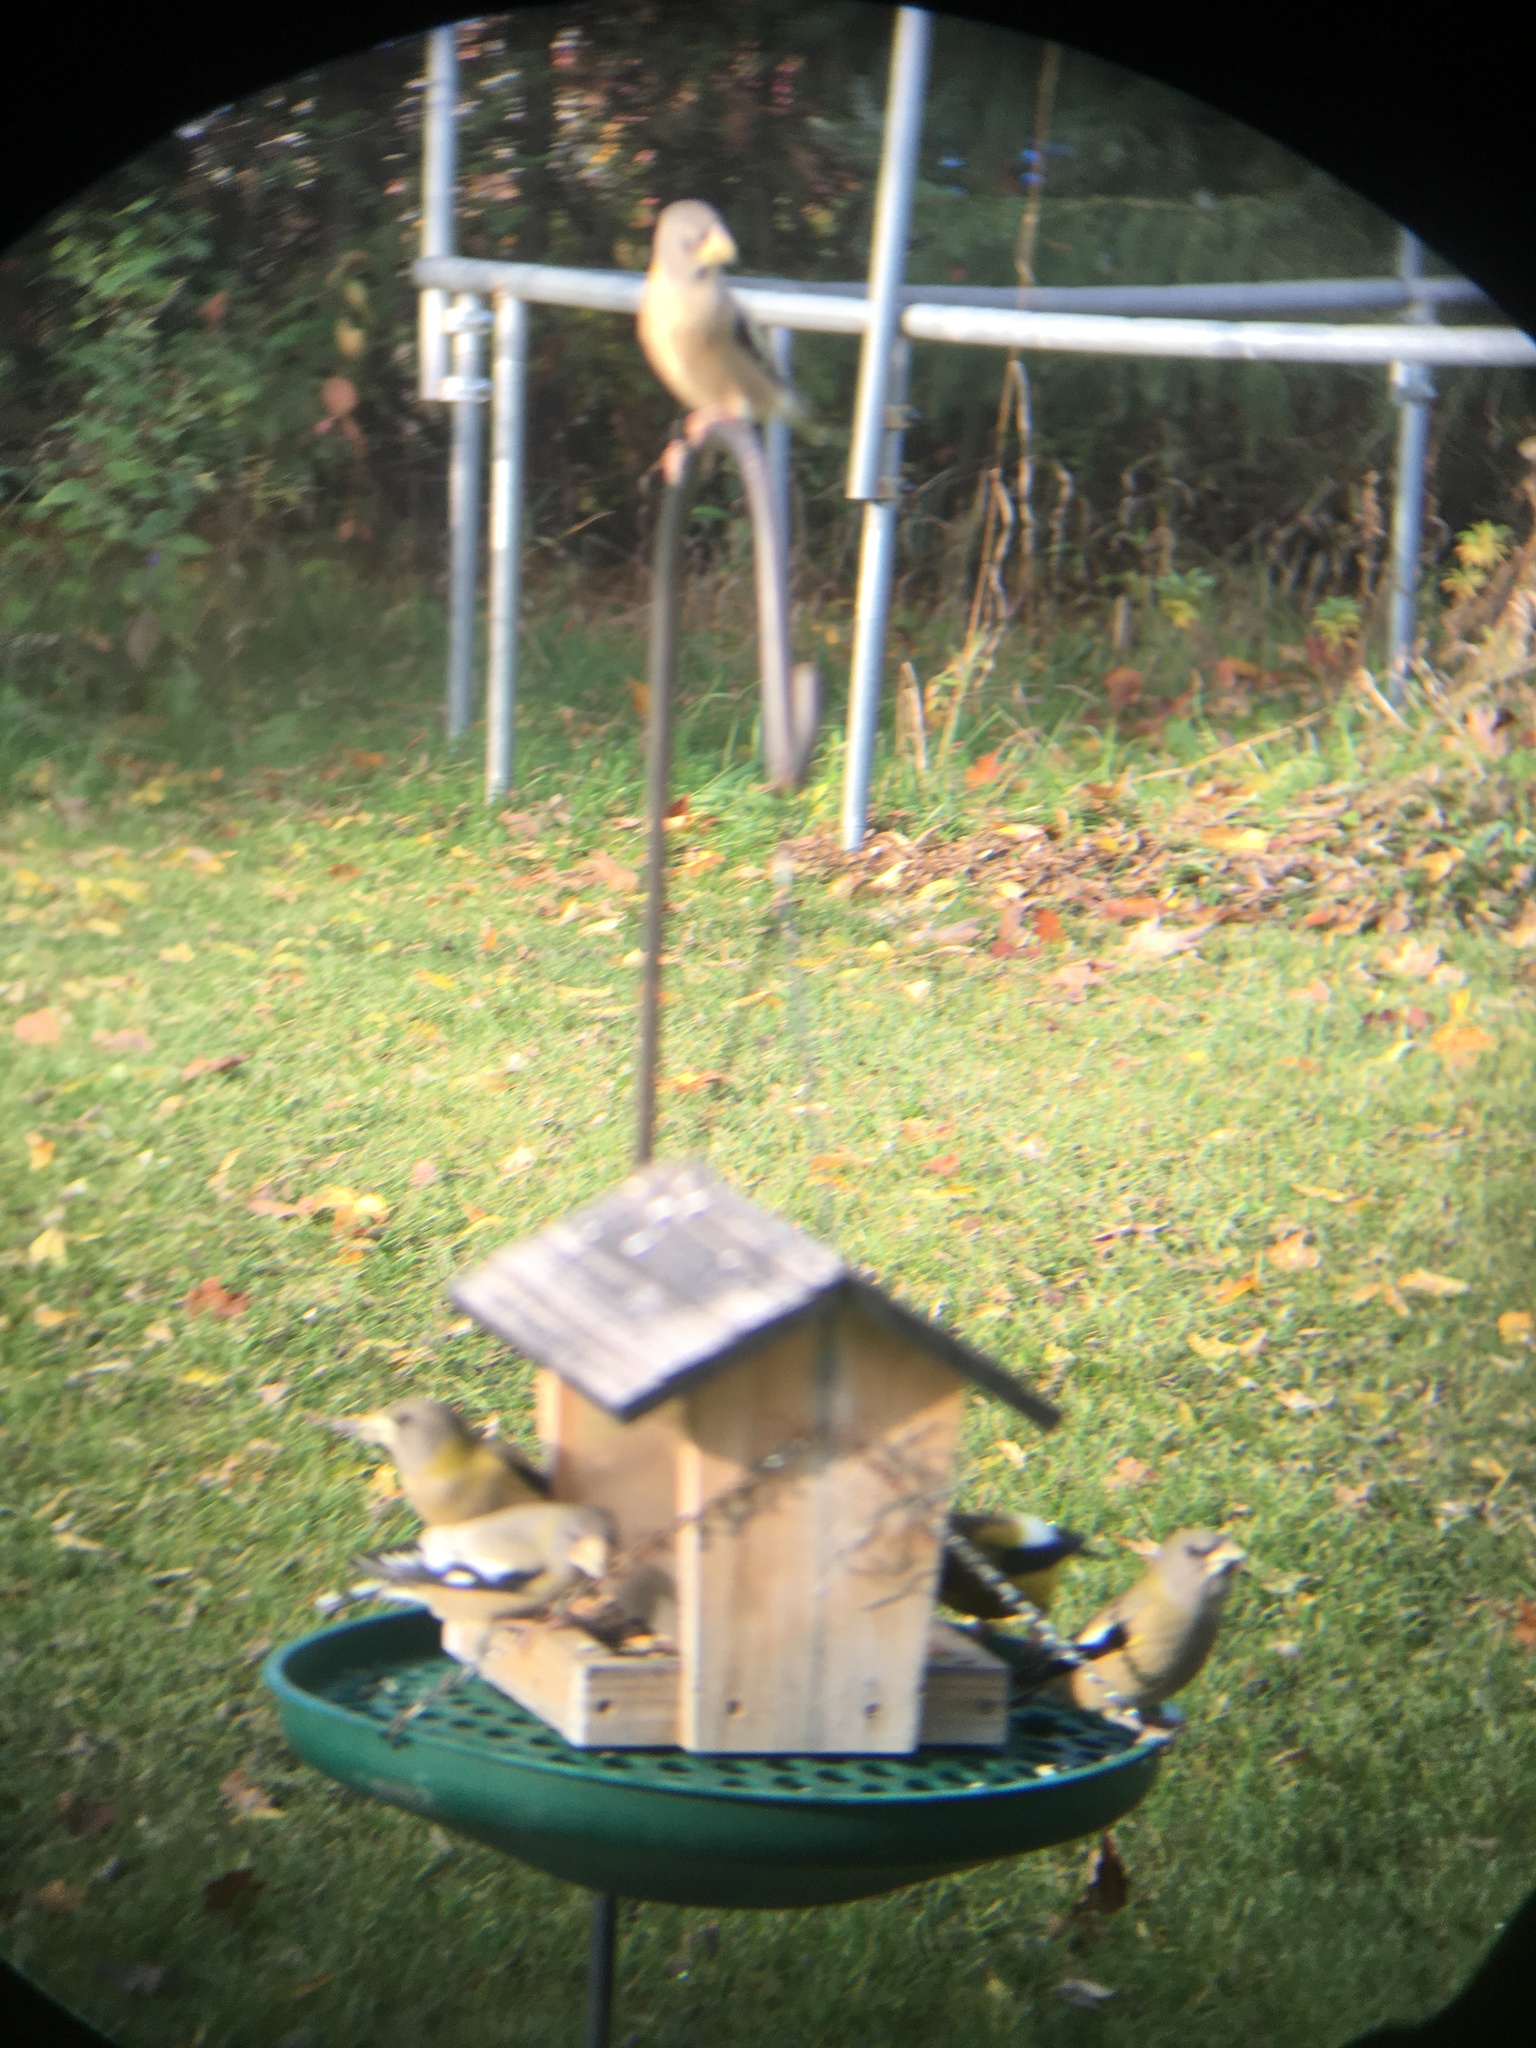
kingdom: Animalia
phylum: Chordata
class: Aves
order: Passeriformes
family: Fringillidae
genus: Hesperiphona
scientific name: Hesperiphona vespertina
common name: Evening grosbeak
